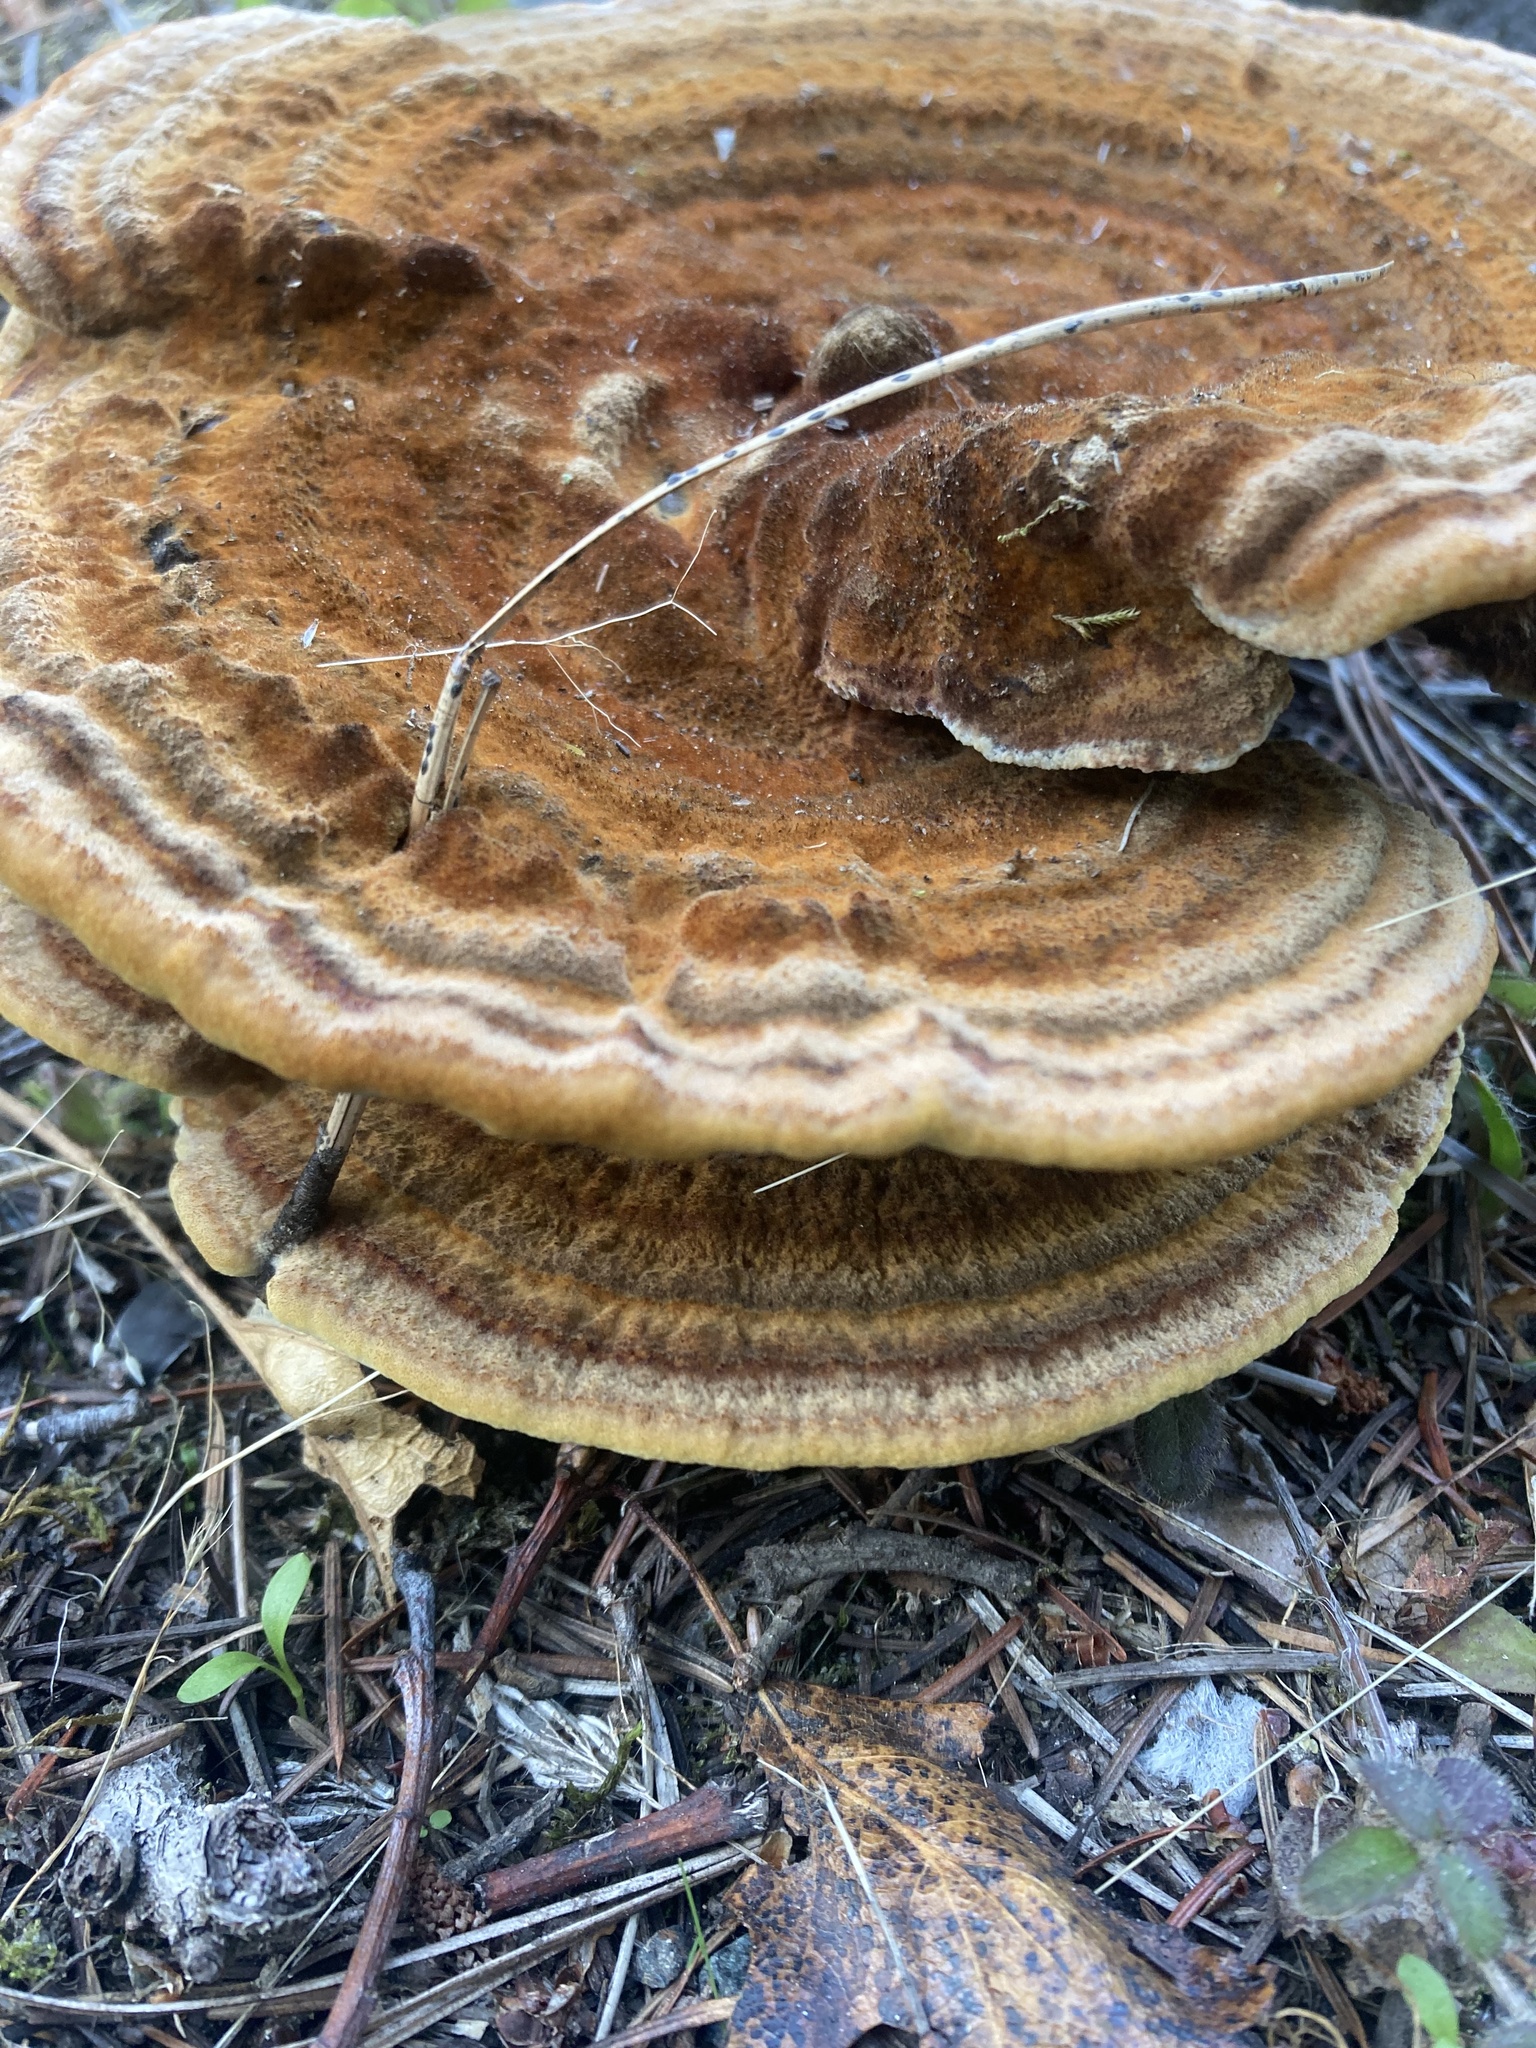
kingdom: Fungi
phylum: Basidiomycota
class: Agaricomycetes
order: Polyporales
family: Laetiporaceae
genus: Phaeolus
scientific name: Phaeolus schweinitzii
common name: Dyer's mazegill
